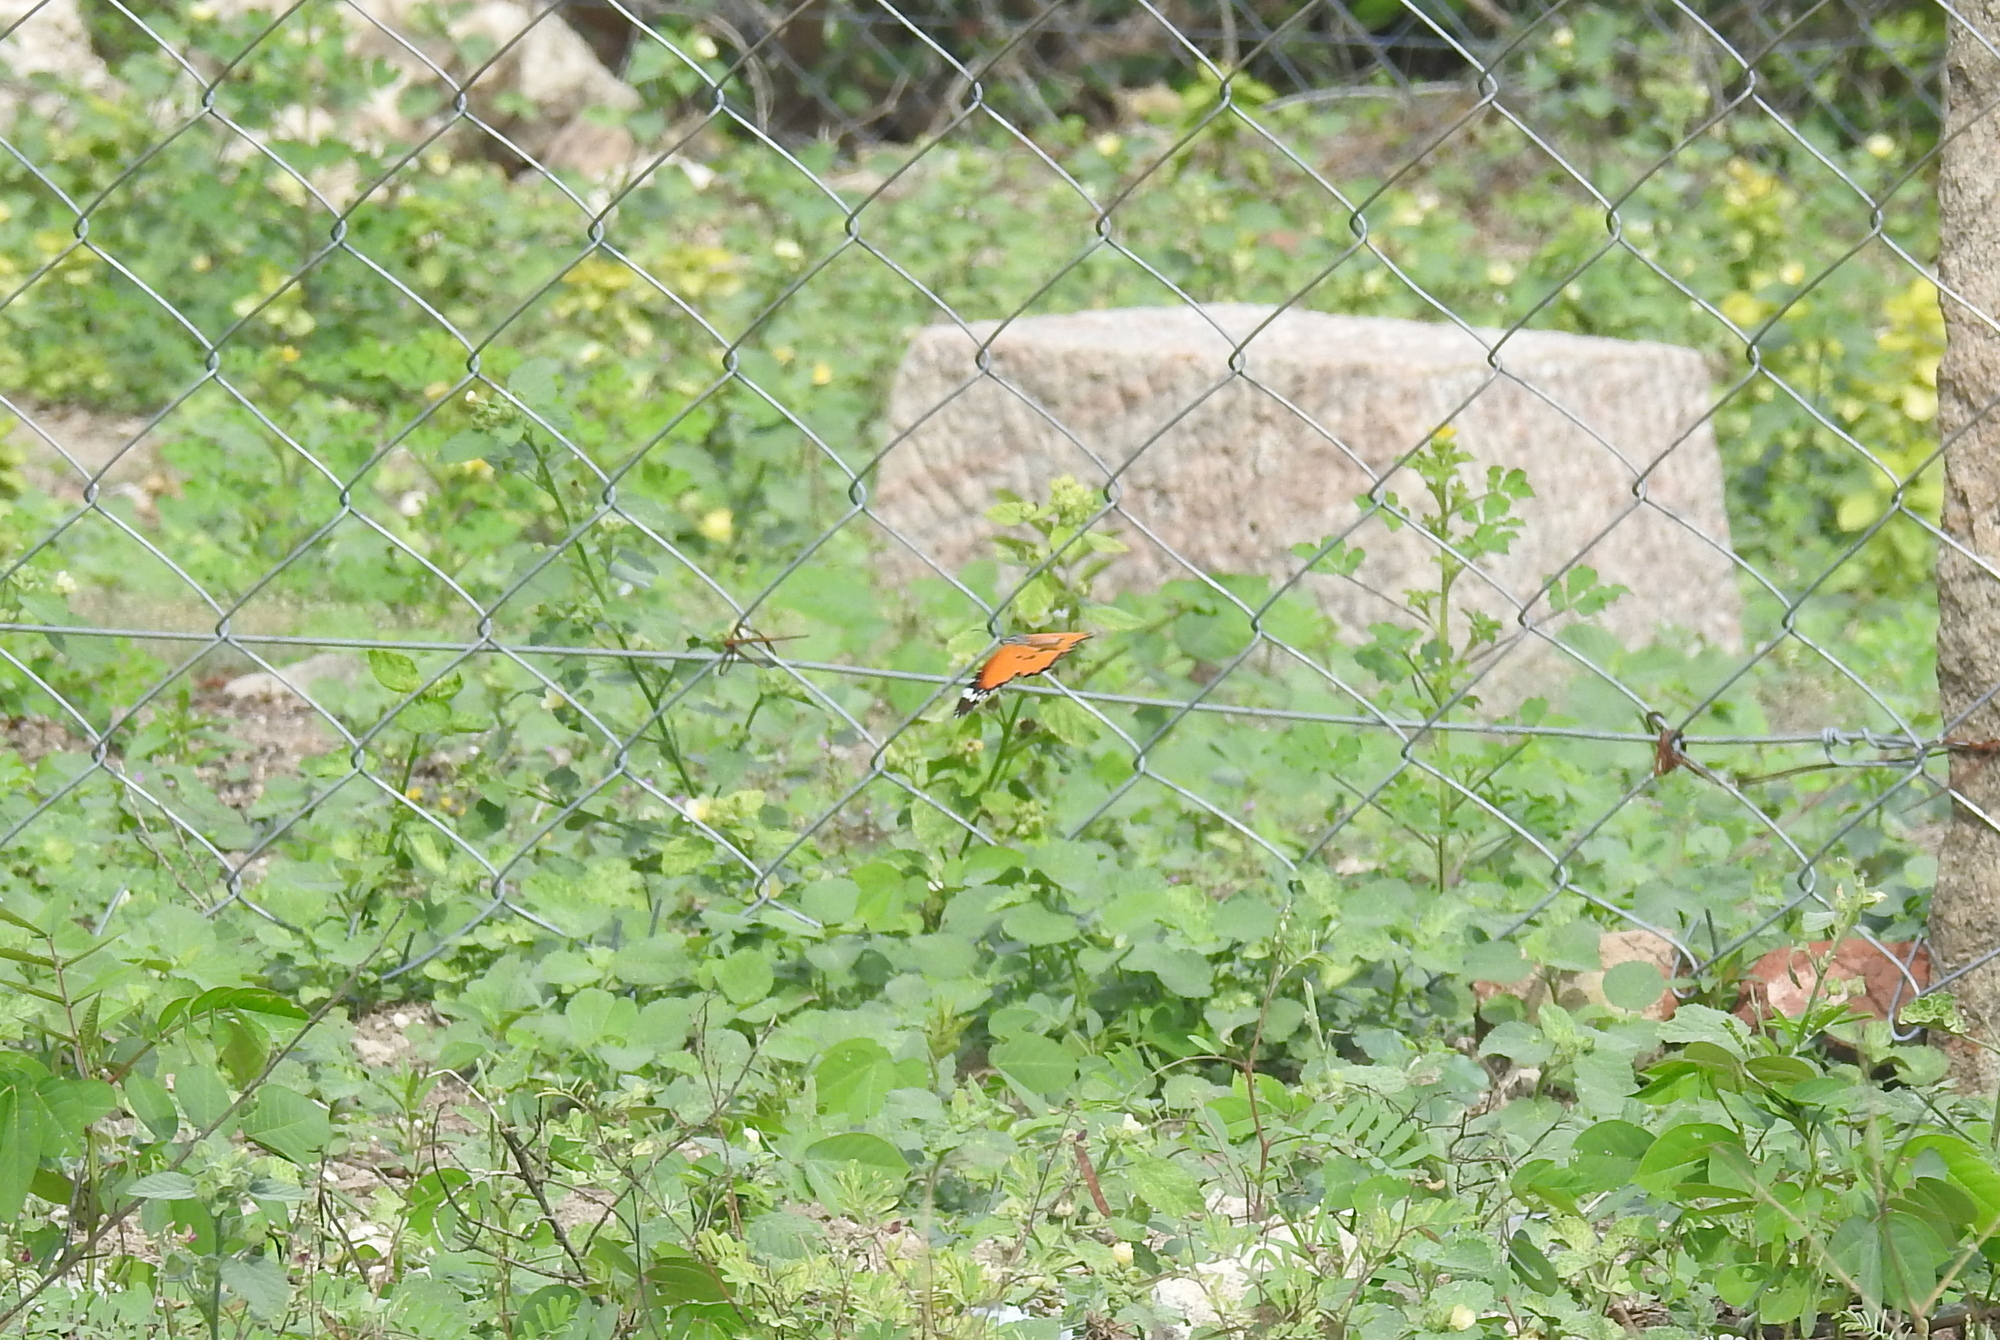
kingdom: Animalia
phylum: Arthropoda
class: Insecta
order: Lepidoptera
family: Nymphalidae
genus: Danaus
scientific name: Danaus chrysippus
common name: Plain tiger
